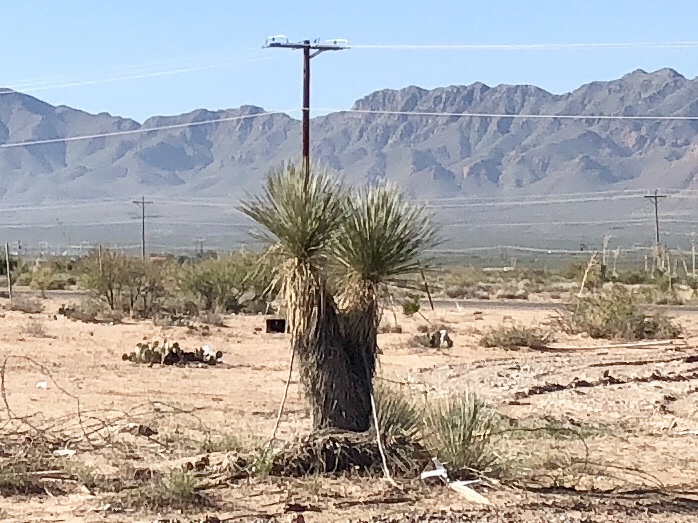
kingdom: Plantae
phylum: Tracheophyta
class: Liliopsida
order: Asparagales
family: Asparagaceae
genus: Yucca
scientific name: Yucca elata
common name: Palmella
